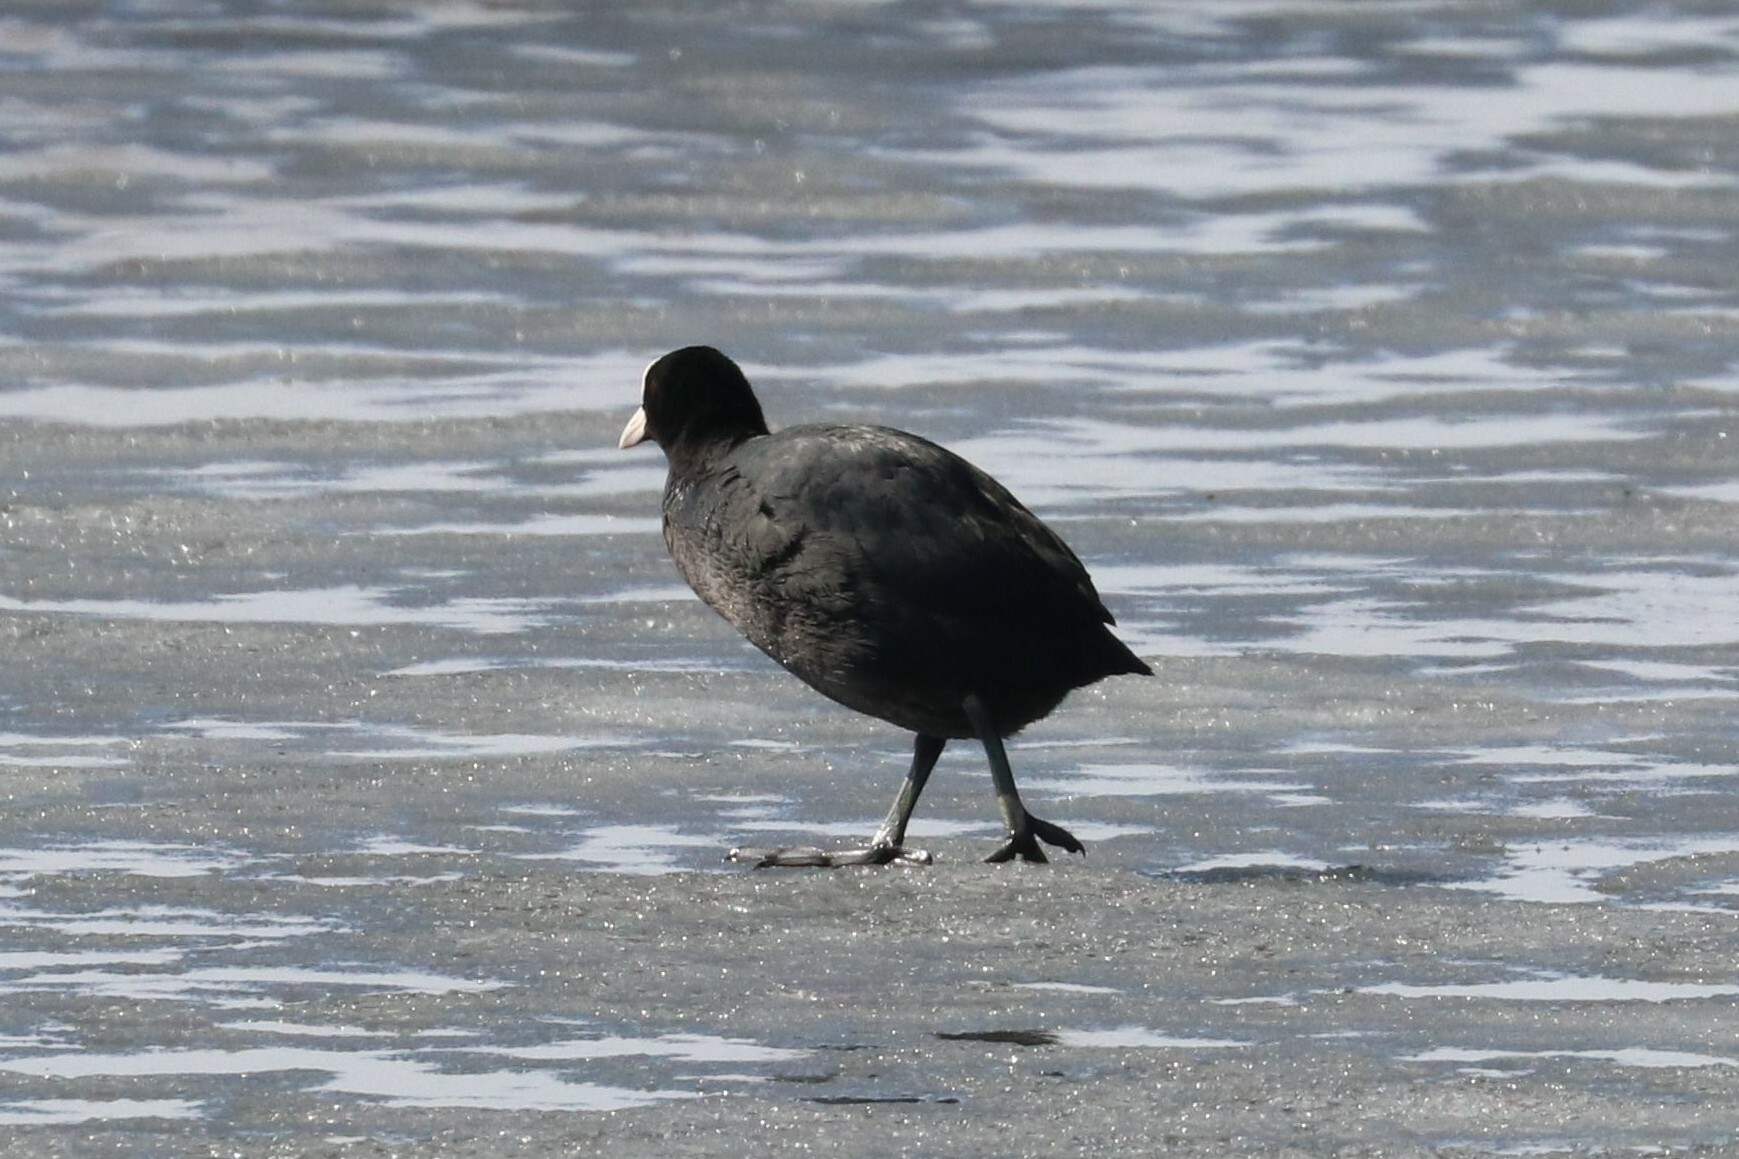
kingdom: Animalia
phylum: Chordata
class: Aves
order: Gruiformes
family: Rallidae
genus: Fulica
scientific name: Fulica atra
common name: Eurasian coot
